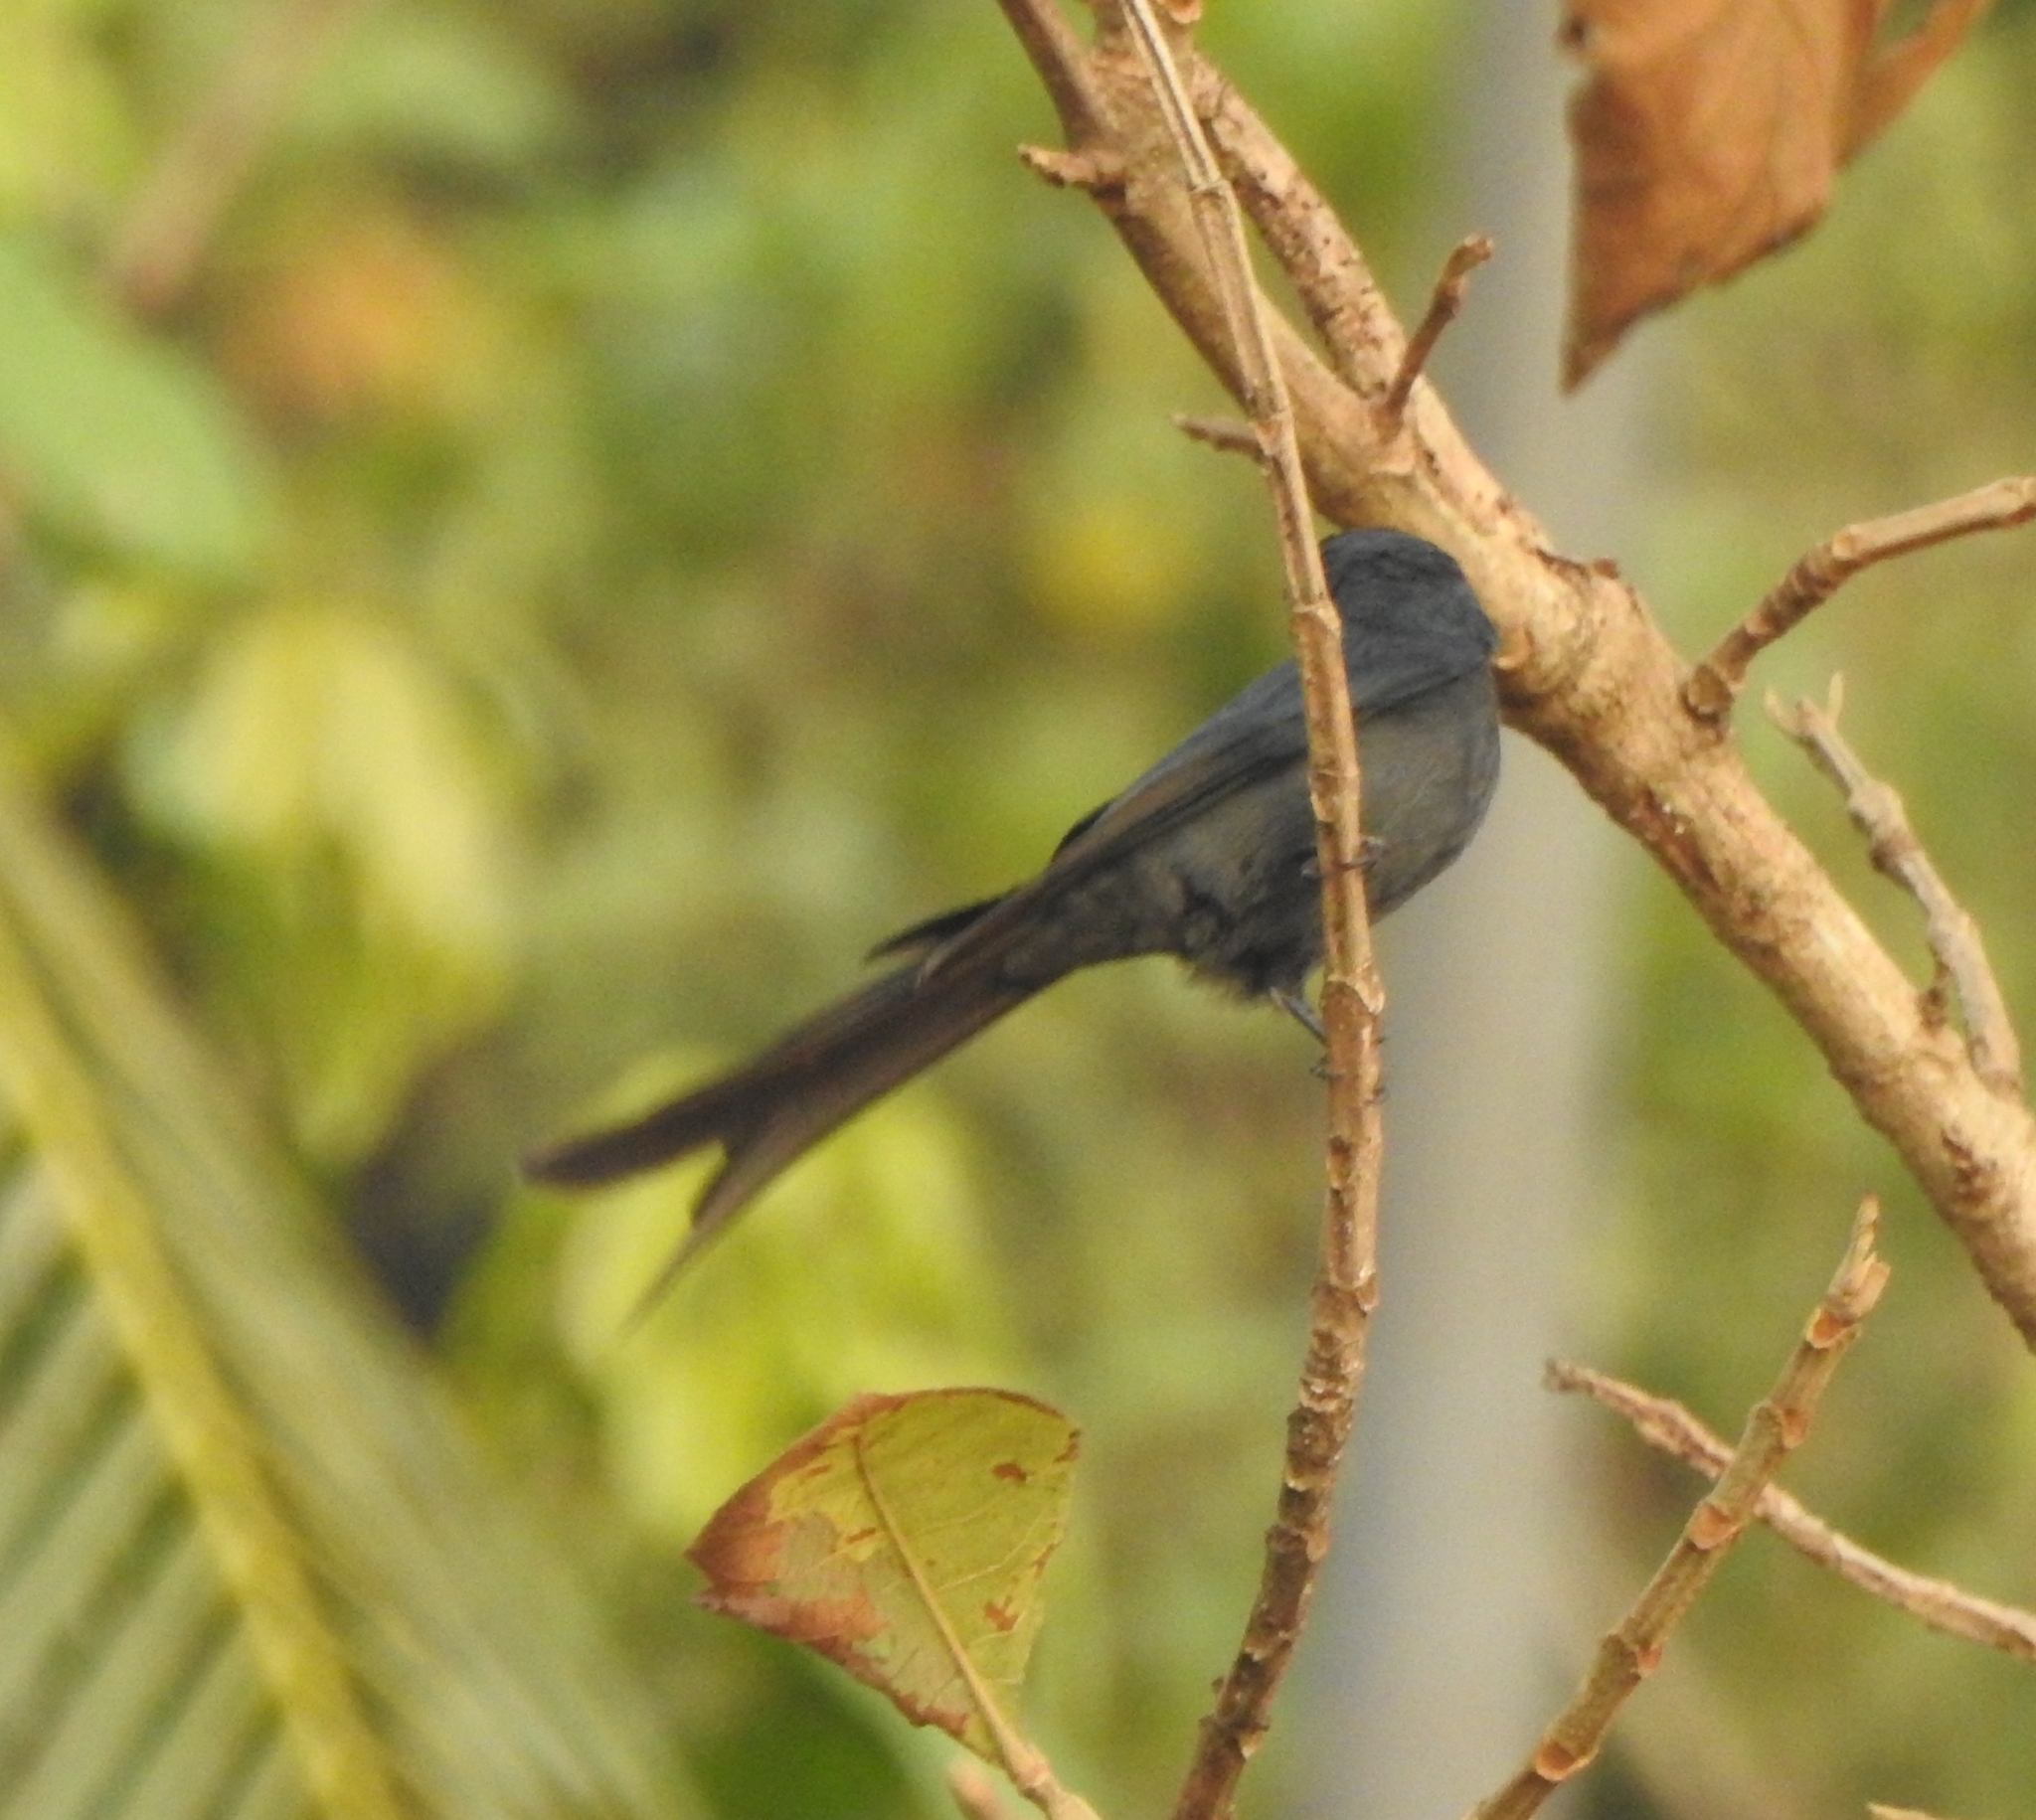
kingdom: Animalia
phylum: Chordata
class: Aves
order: Passeriformes
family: Dicruridae
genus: Dicrurus
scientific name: Dicrurus leucophaeus
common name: Ashy drongo
